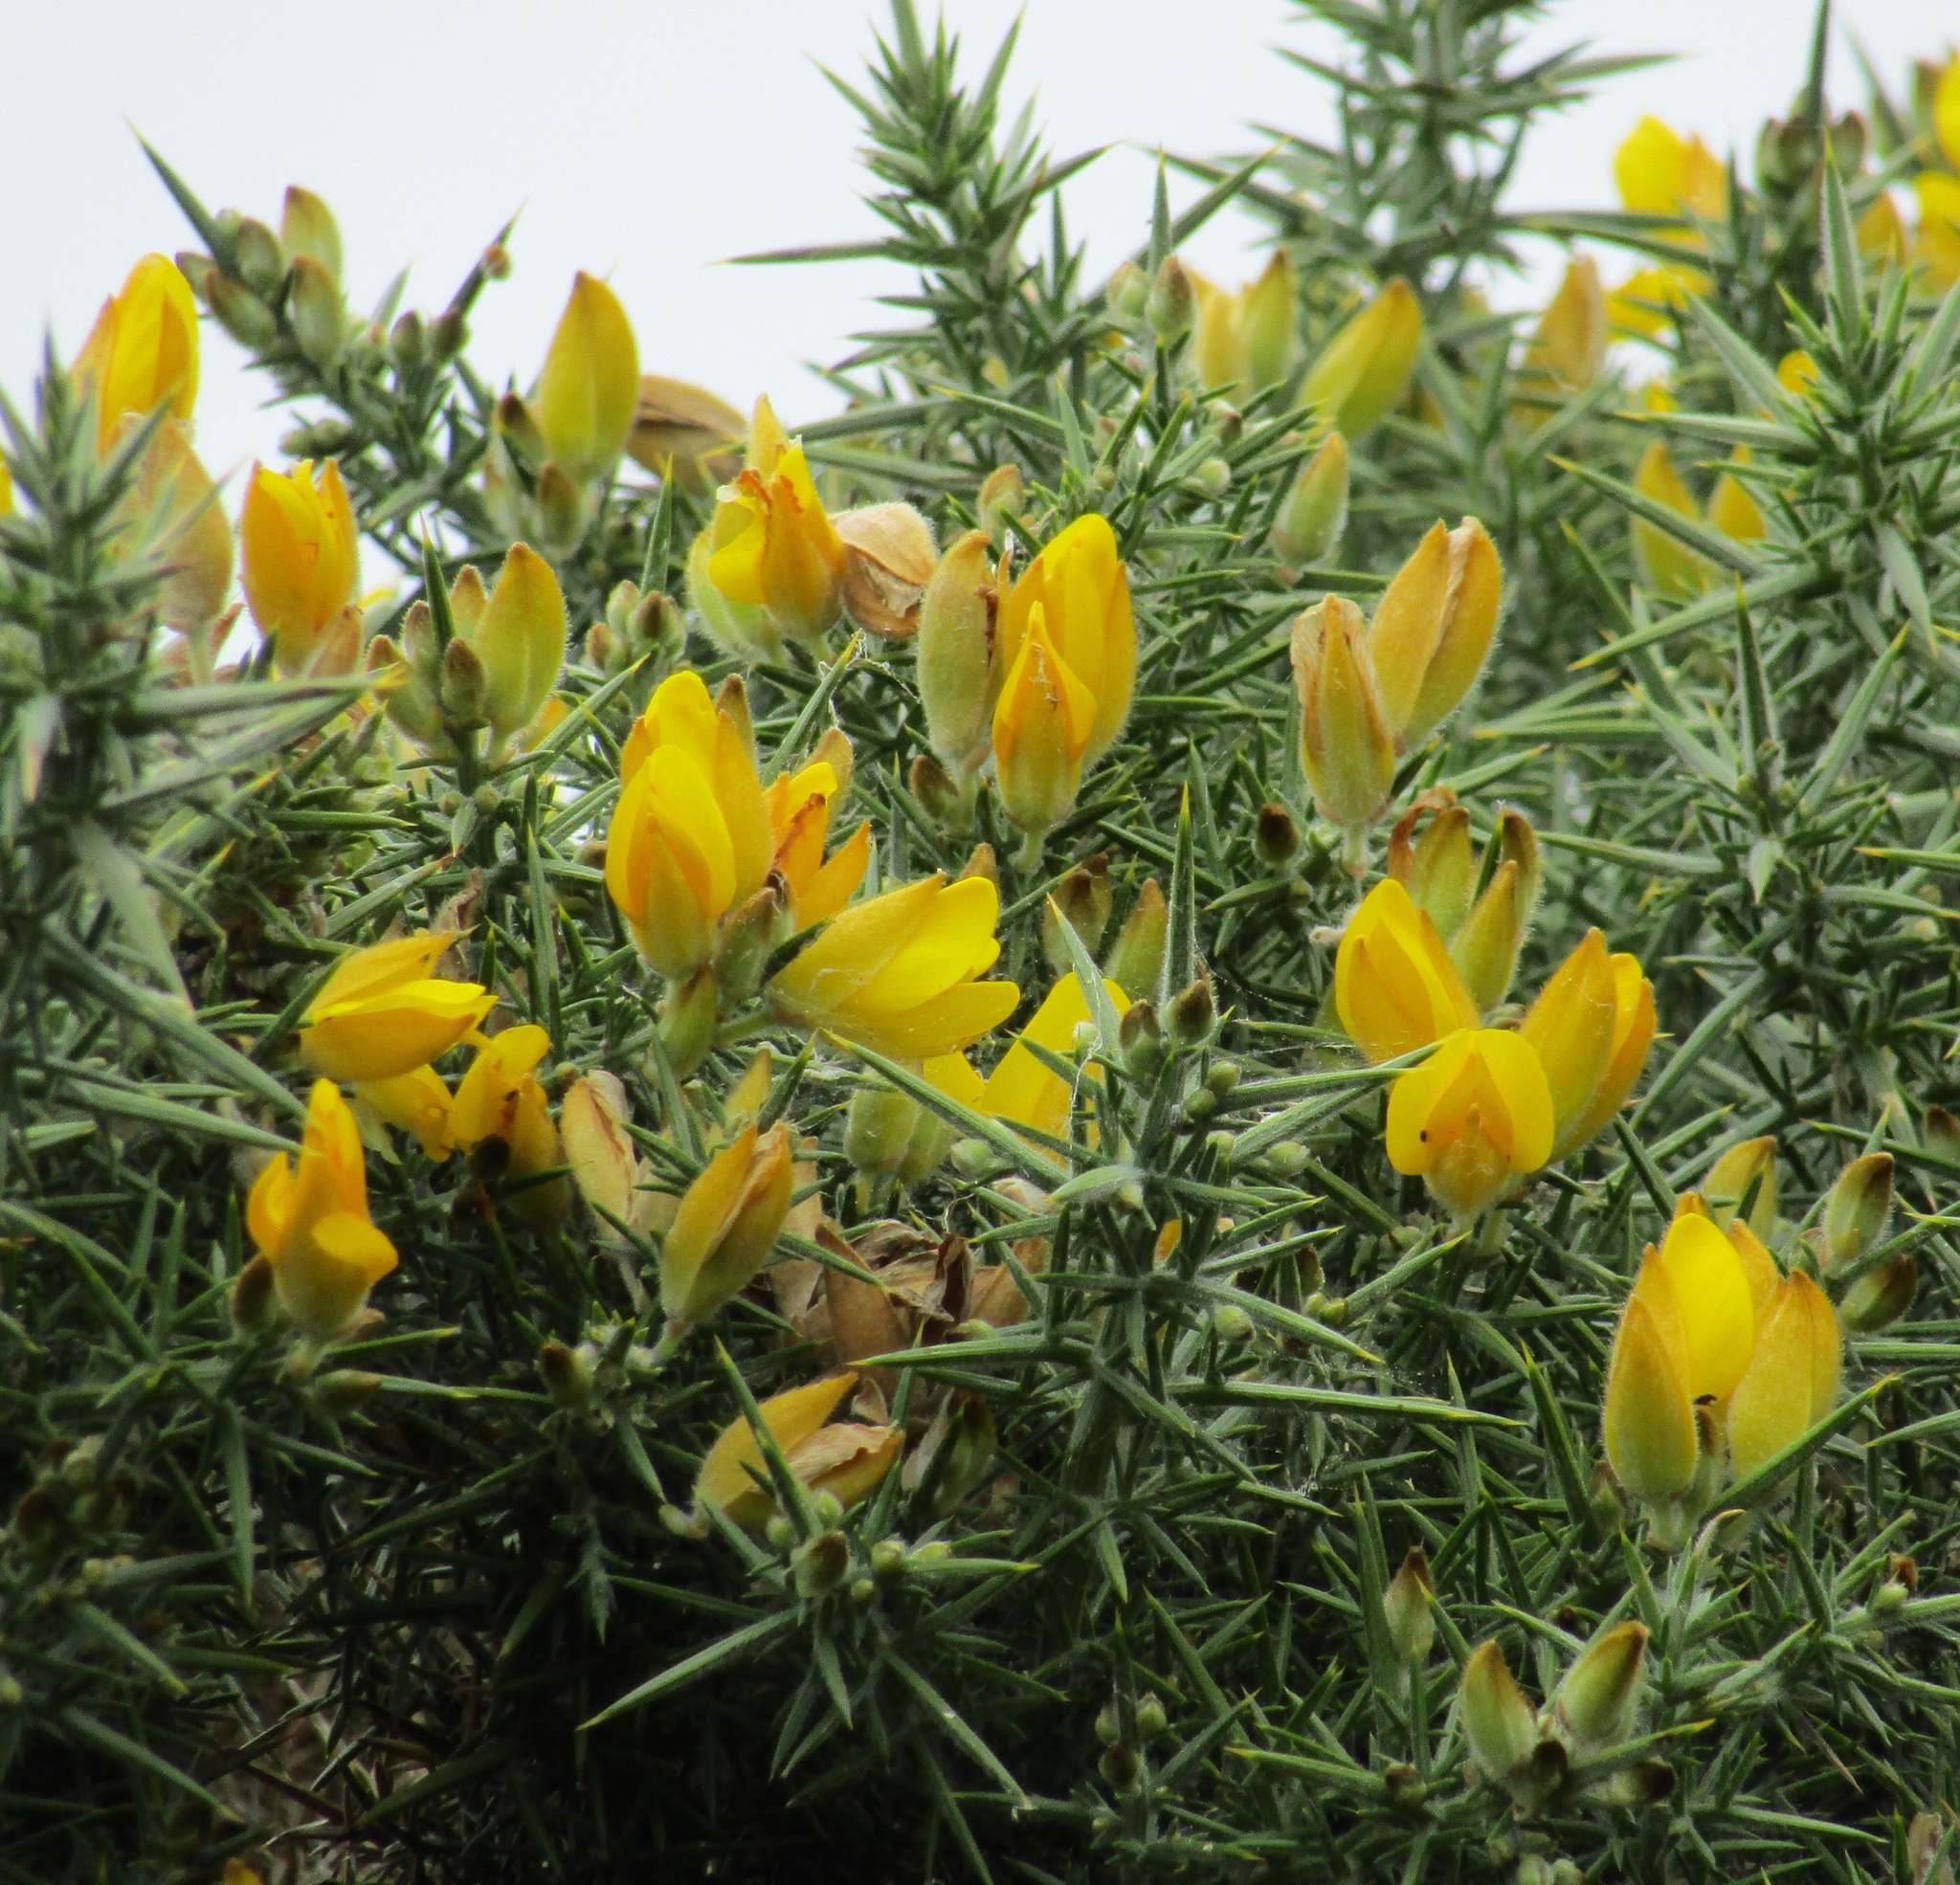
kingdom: Plantae
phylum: Tracheophyta
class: Magnoliopsida
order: Fabales
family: Fabaceae
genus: Ulex
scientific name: Ulex europaeus
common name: Common gorse
